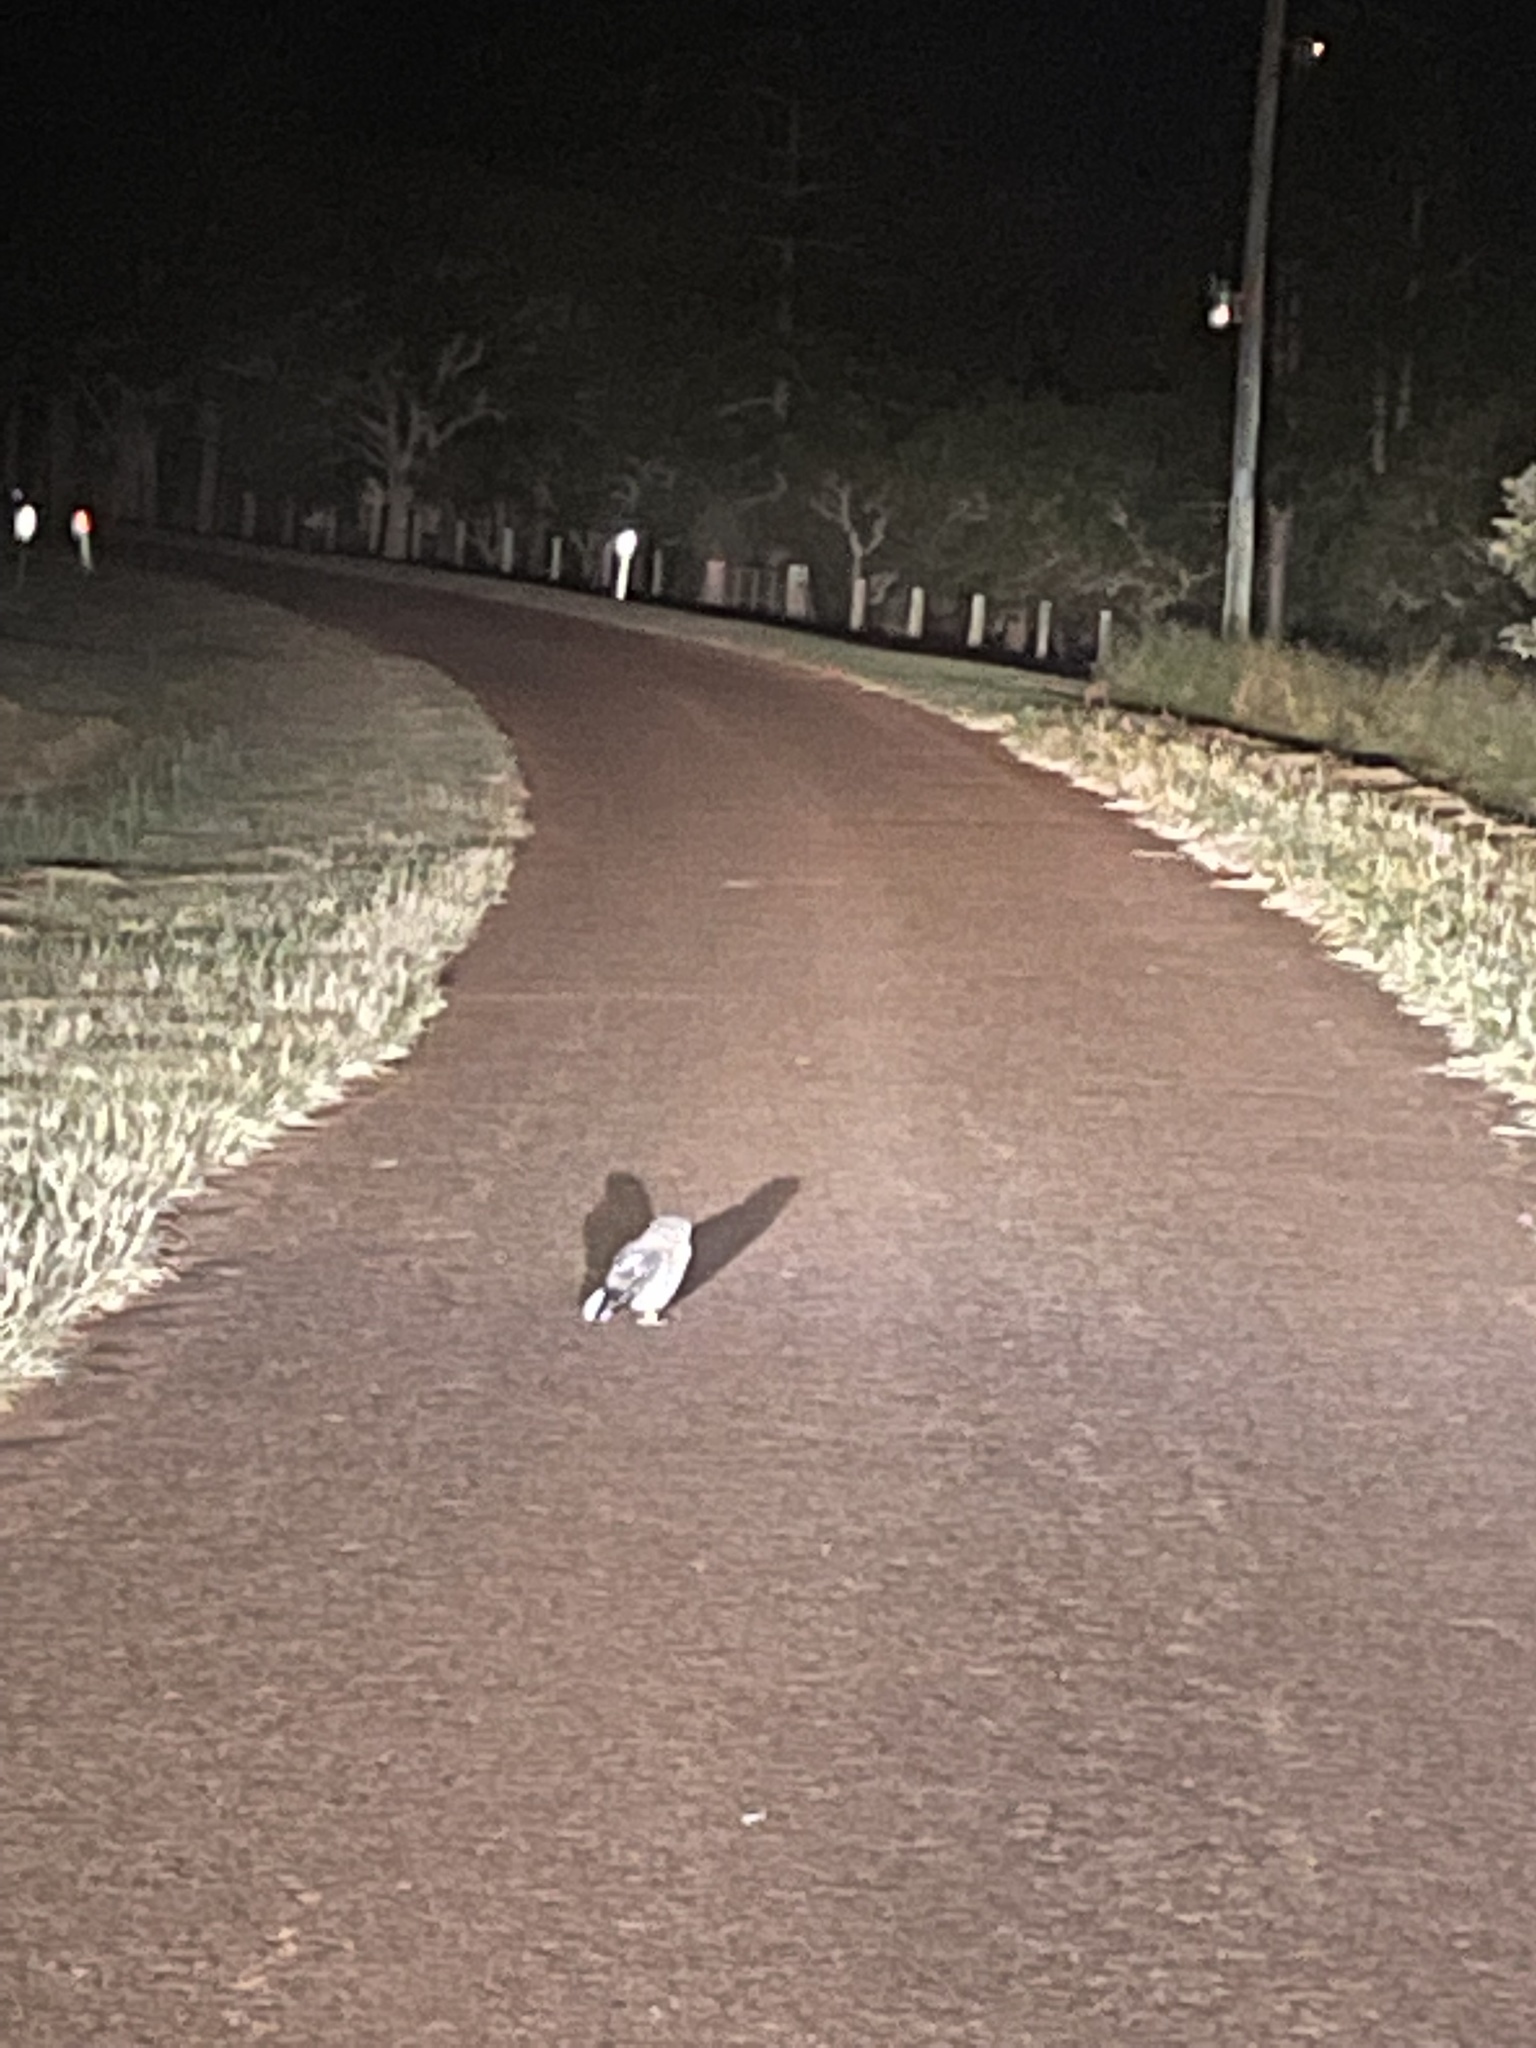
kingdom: Animalia
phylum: Chordata
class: Aves
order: Strigiformes
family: Strigidae
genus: Ninox
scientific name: Ninox boobook
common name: Southern boobook
